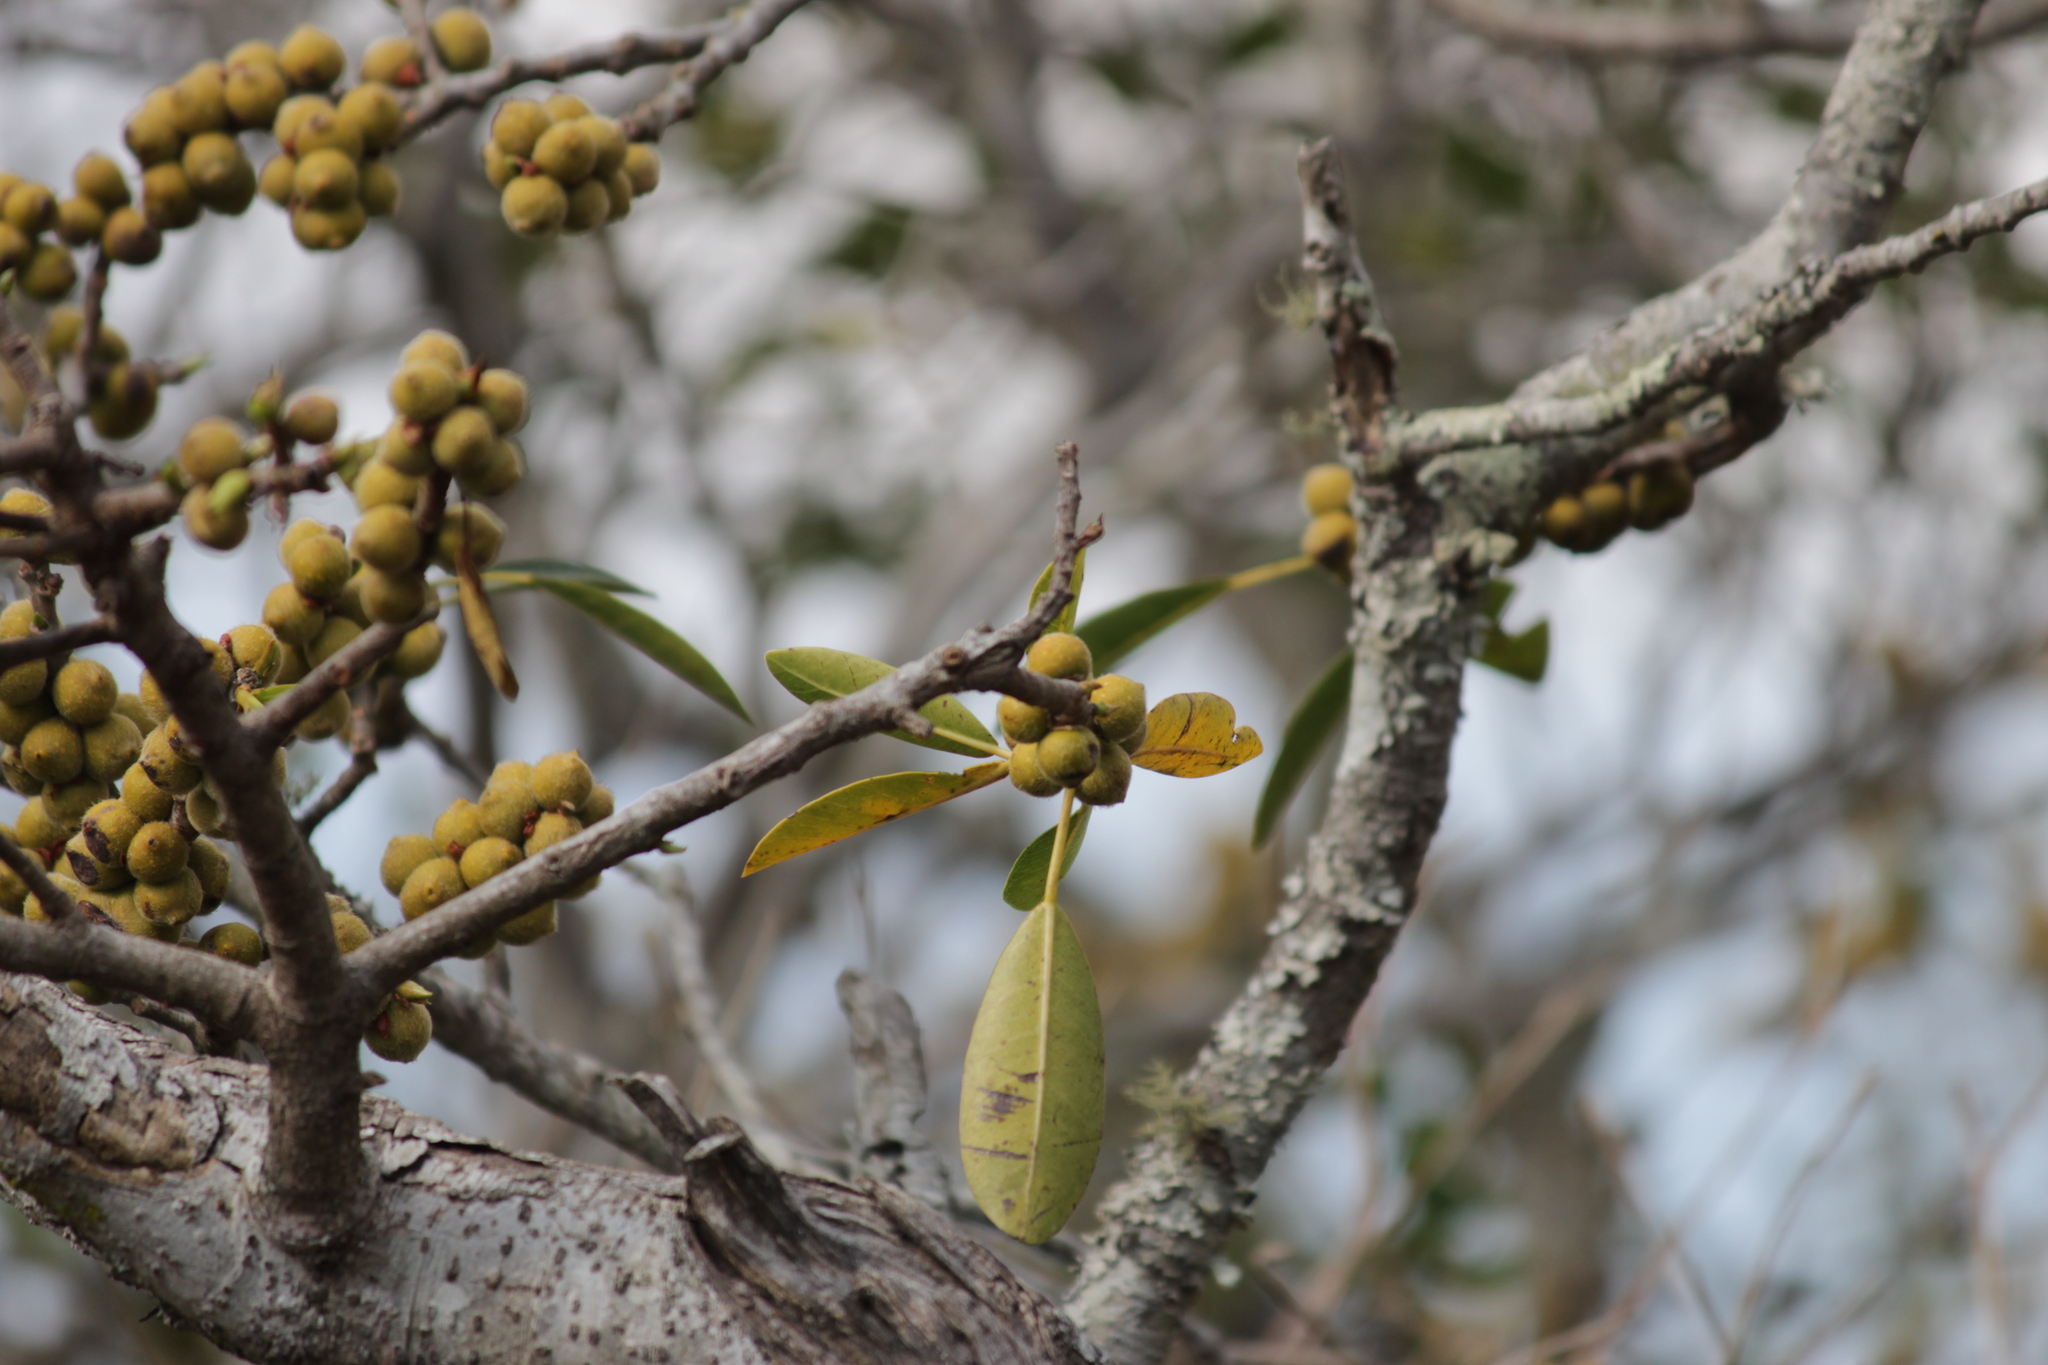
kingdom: Plantae
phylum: Tracheophyta
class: Magnoliopsida
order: Rosales
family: Moraceae
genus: Ficus
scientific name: Ficus thonningii
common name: Fig
